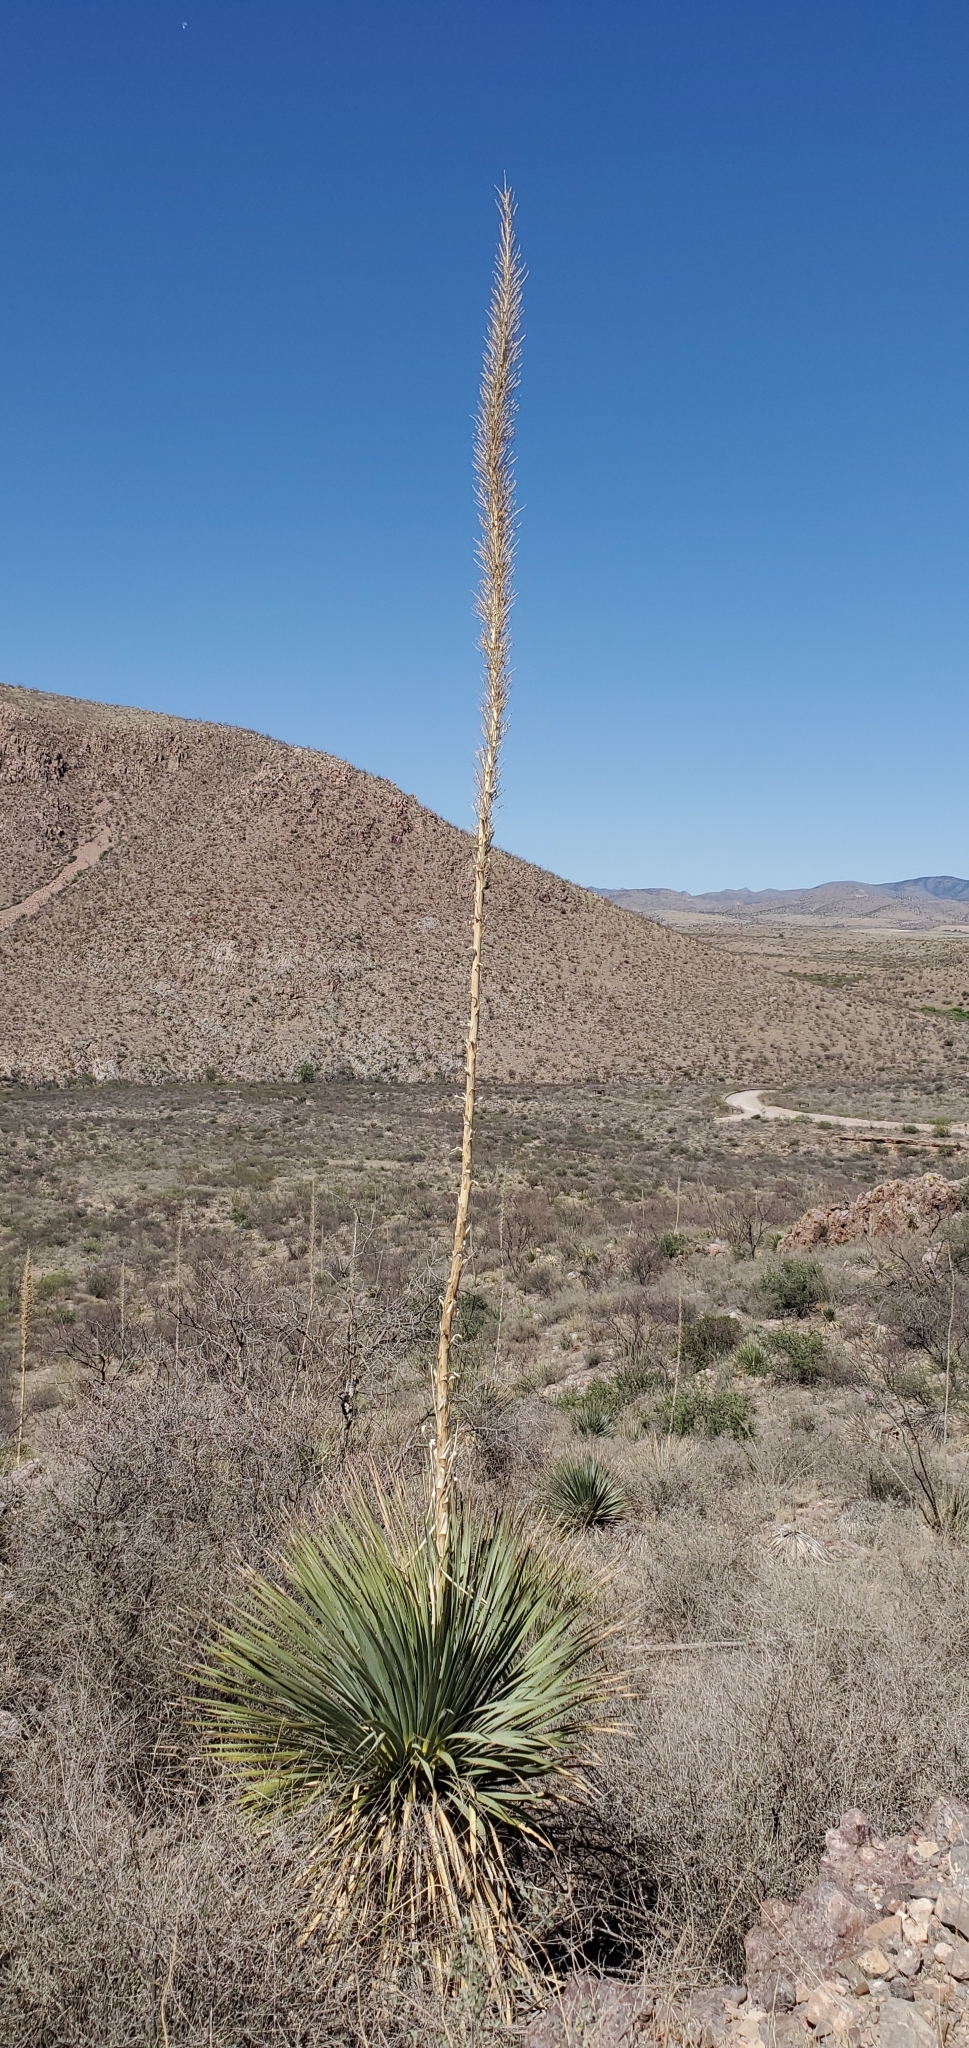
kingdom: Plantae
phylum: Tracheophyta
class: Liliopsida
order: Asparagales
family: Asparagaceae
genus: Dasylirion
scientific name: Dasylirion wheeleri
